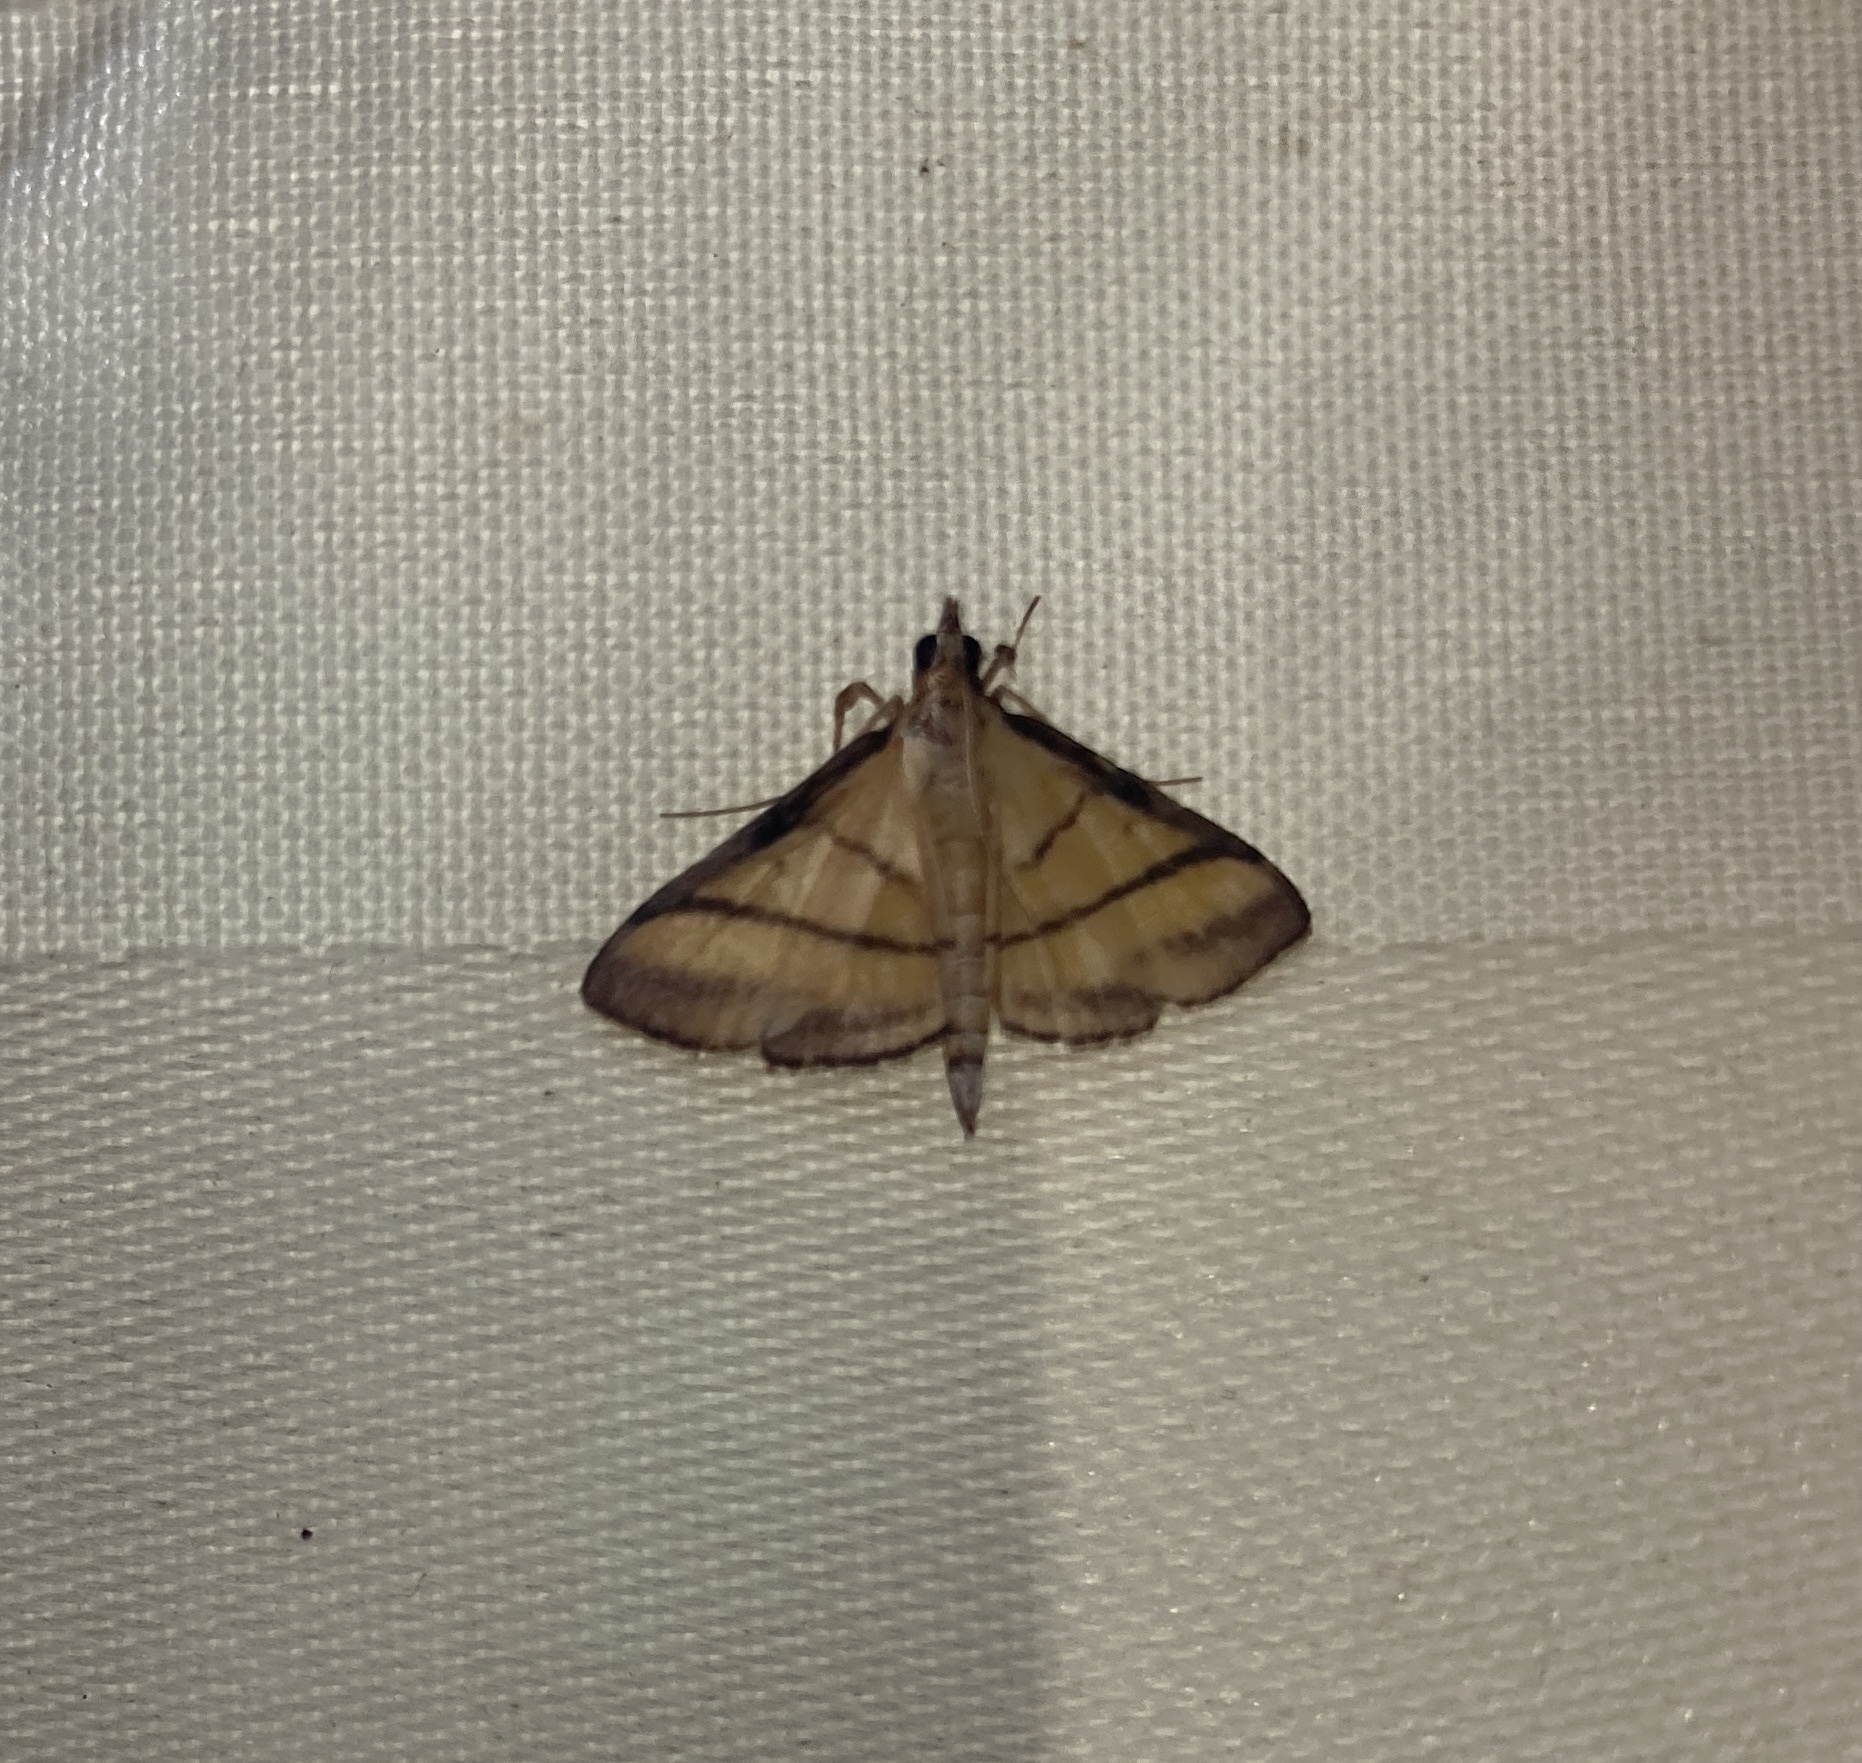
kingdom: Animalia
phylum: Arthropoda
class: Insecta
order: Lepidoptera
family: Crambidae
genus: Cnaphalocrocis
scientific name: Cnaphalocrocis medinalis
